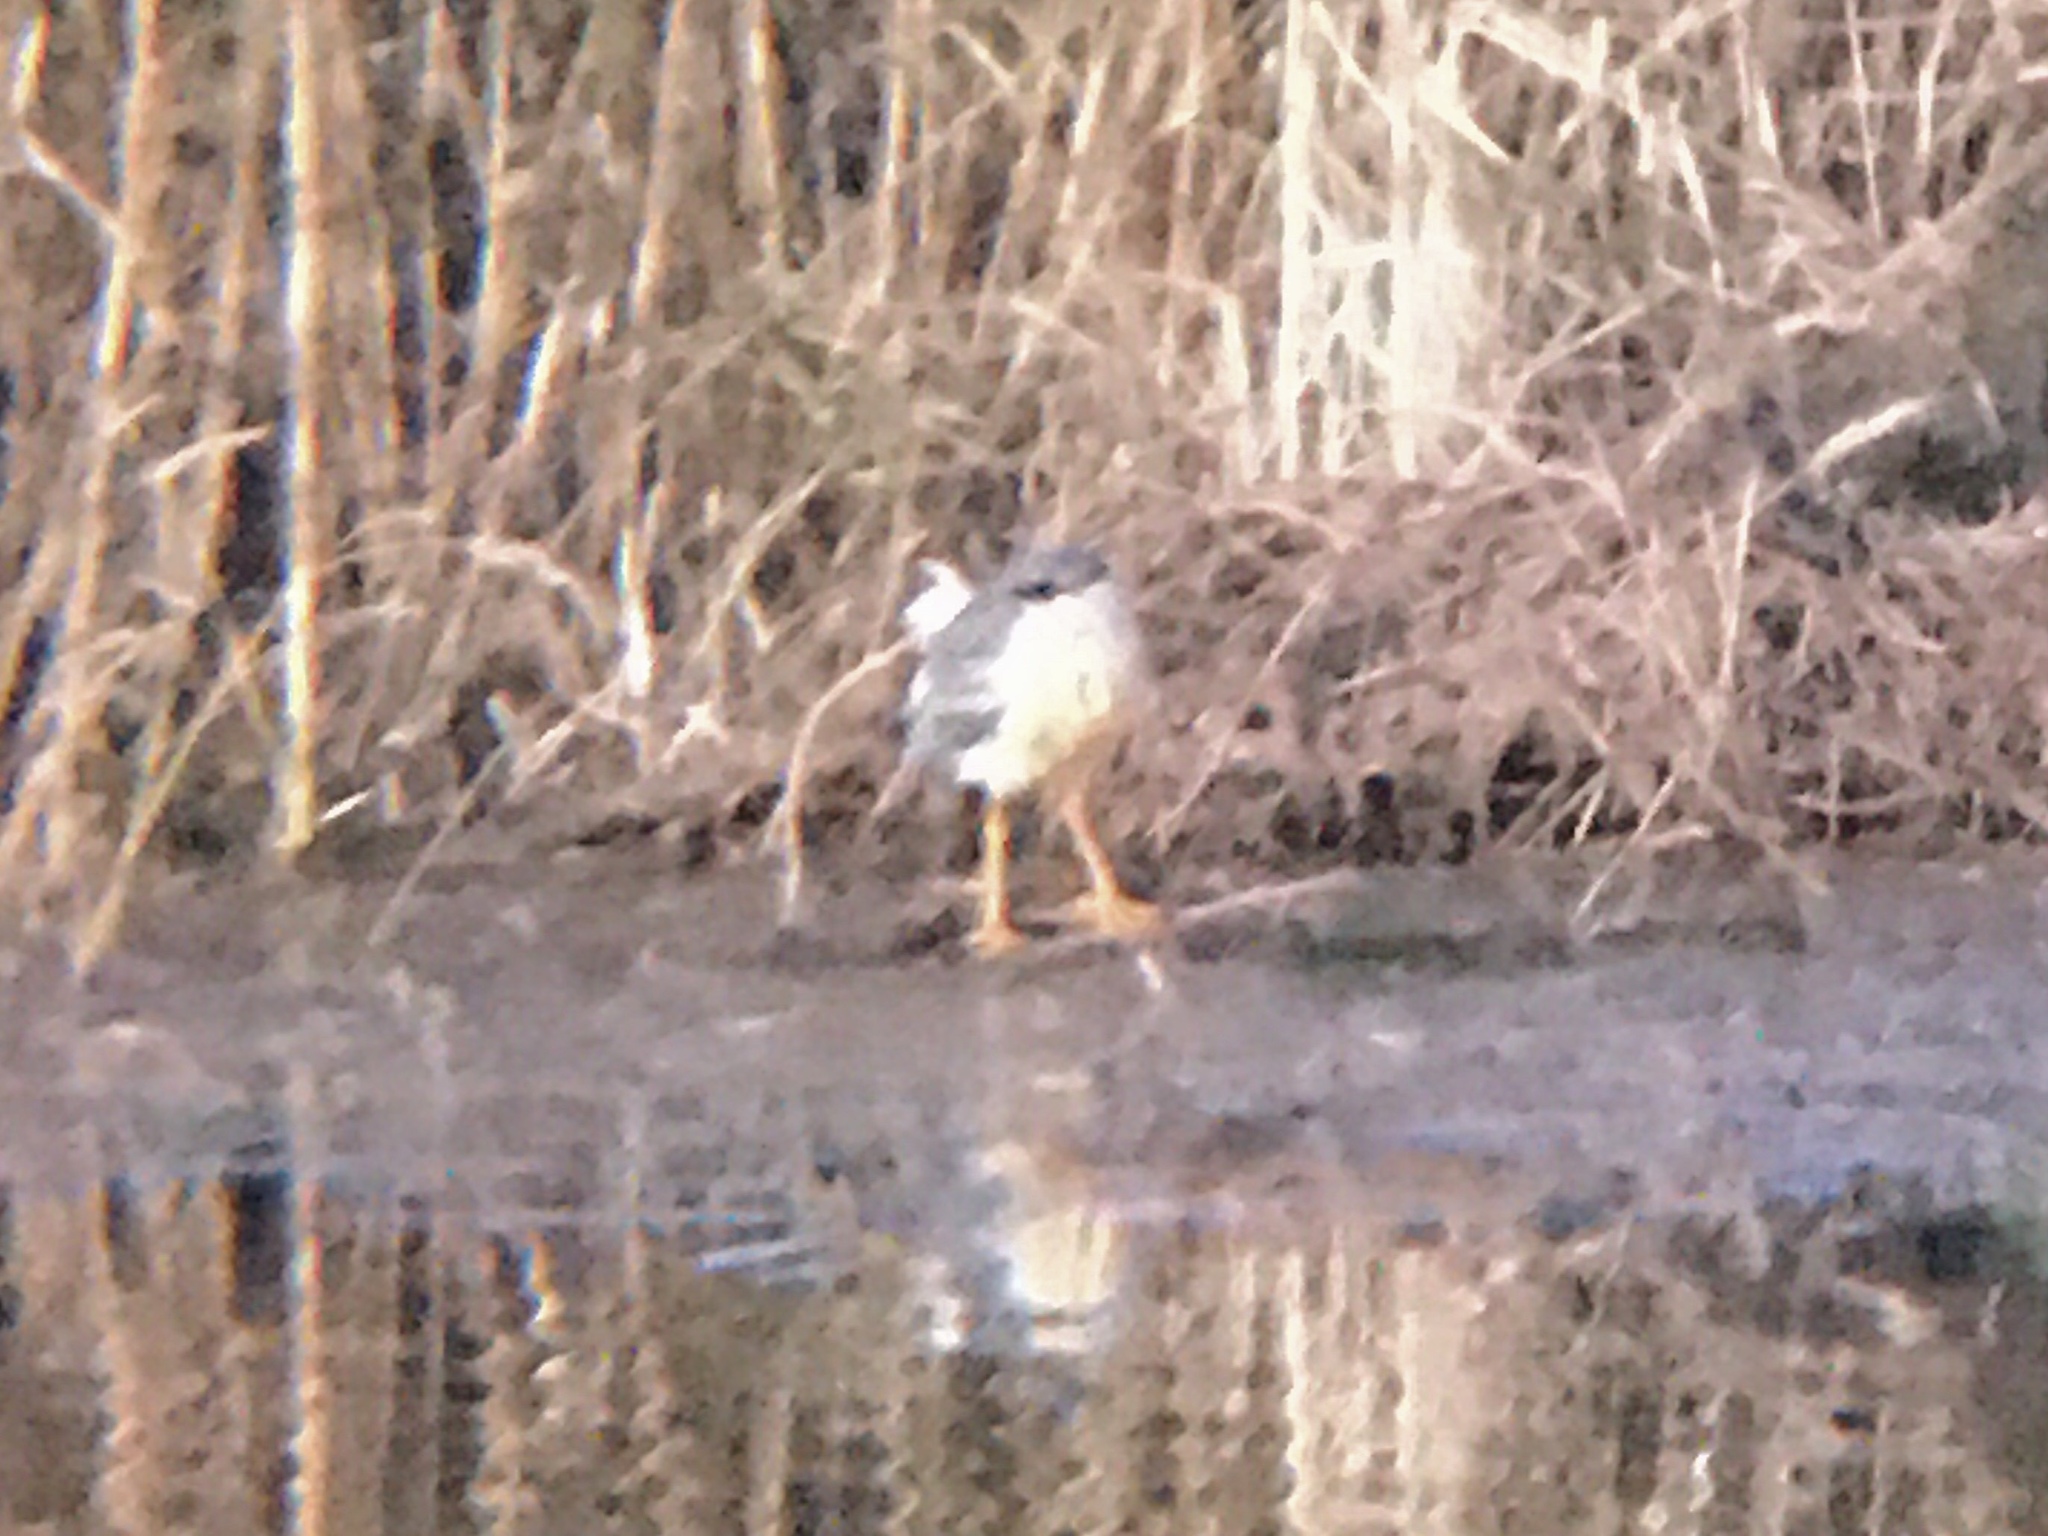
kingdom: Animalia
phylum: Chordata
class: Aves
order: Pelecaniformes
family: Ardeidae
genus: Butorides
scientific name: Butorides striata
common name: Striated heron
